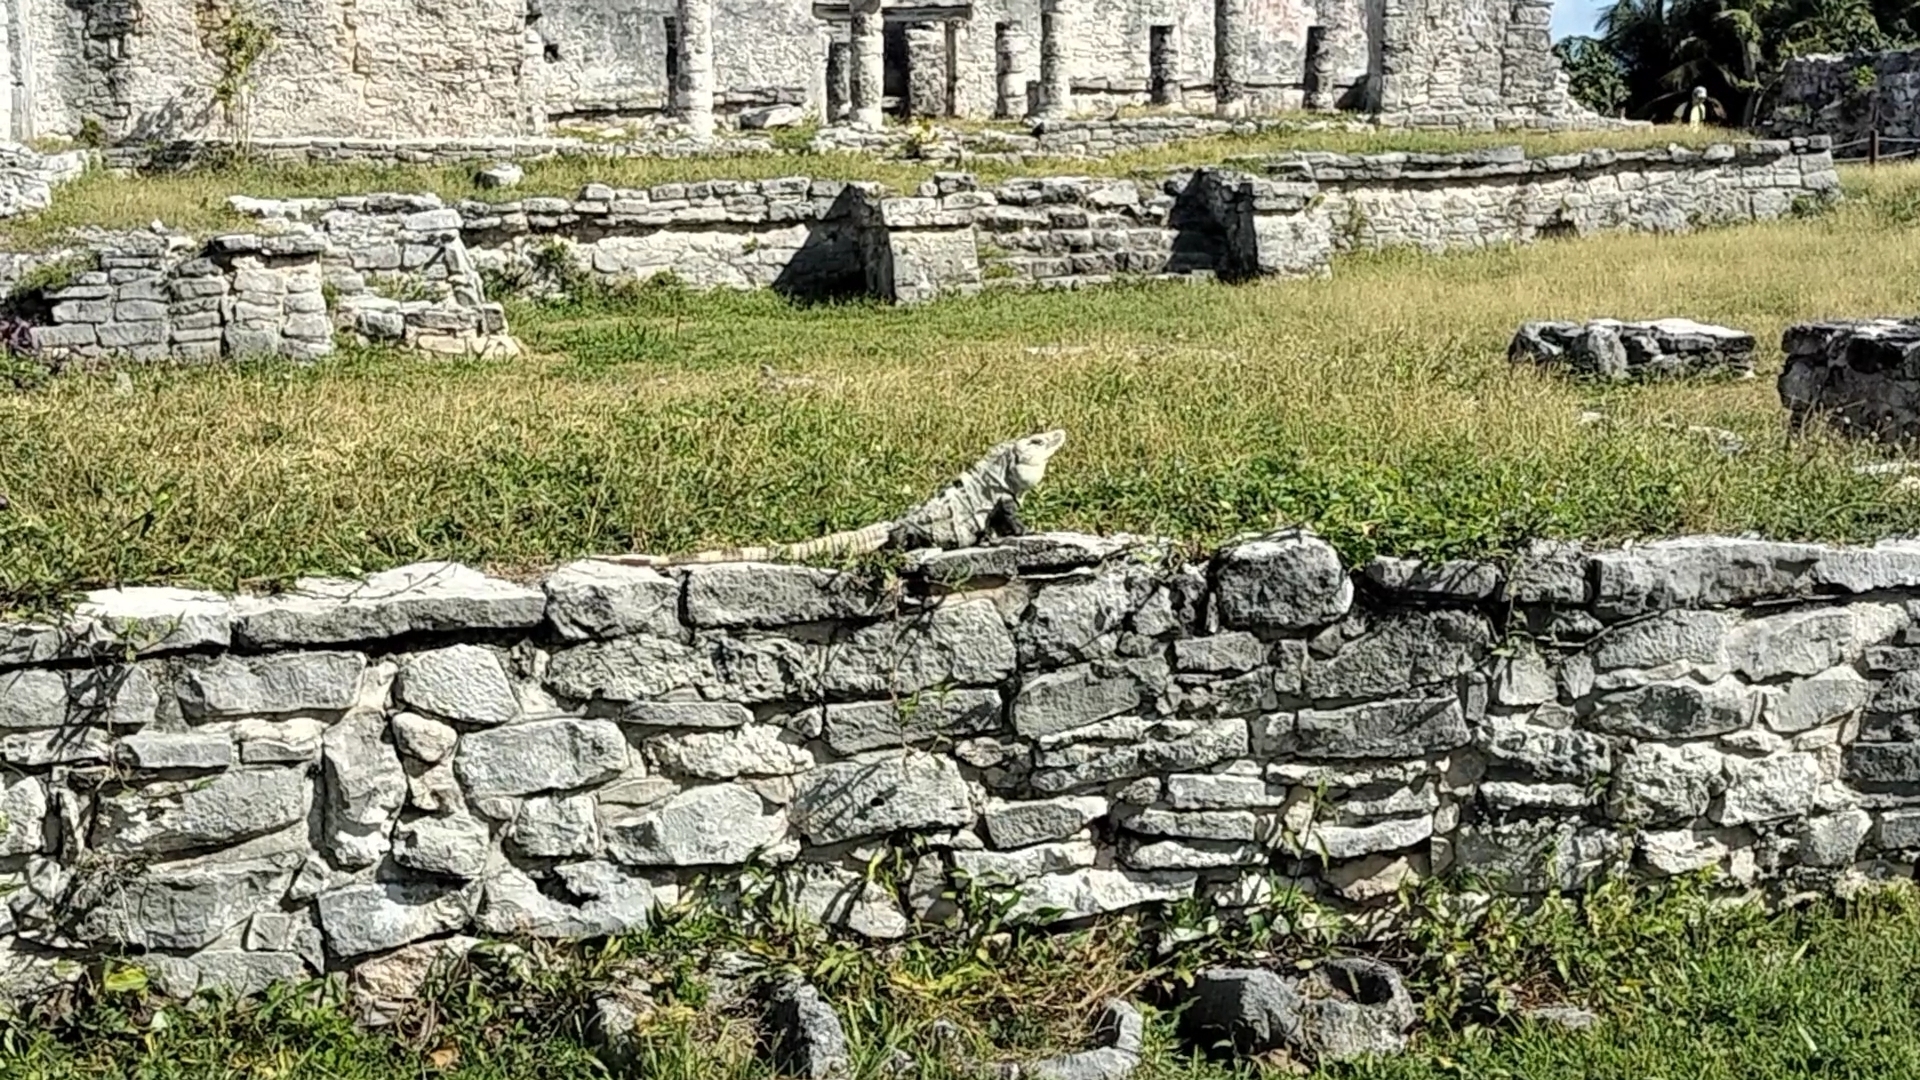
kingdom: Animalia
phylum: Chordata
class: Squamata
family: Iguanidae
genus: Ctenosaura
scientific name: Ctenosaura similis
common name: Black spiny-tailed iguana
